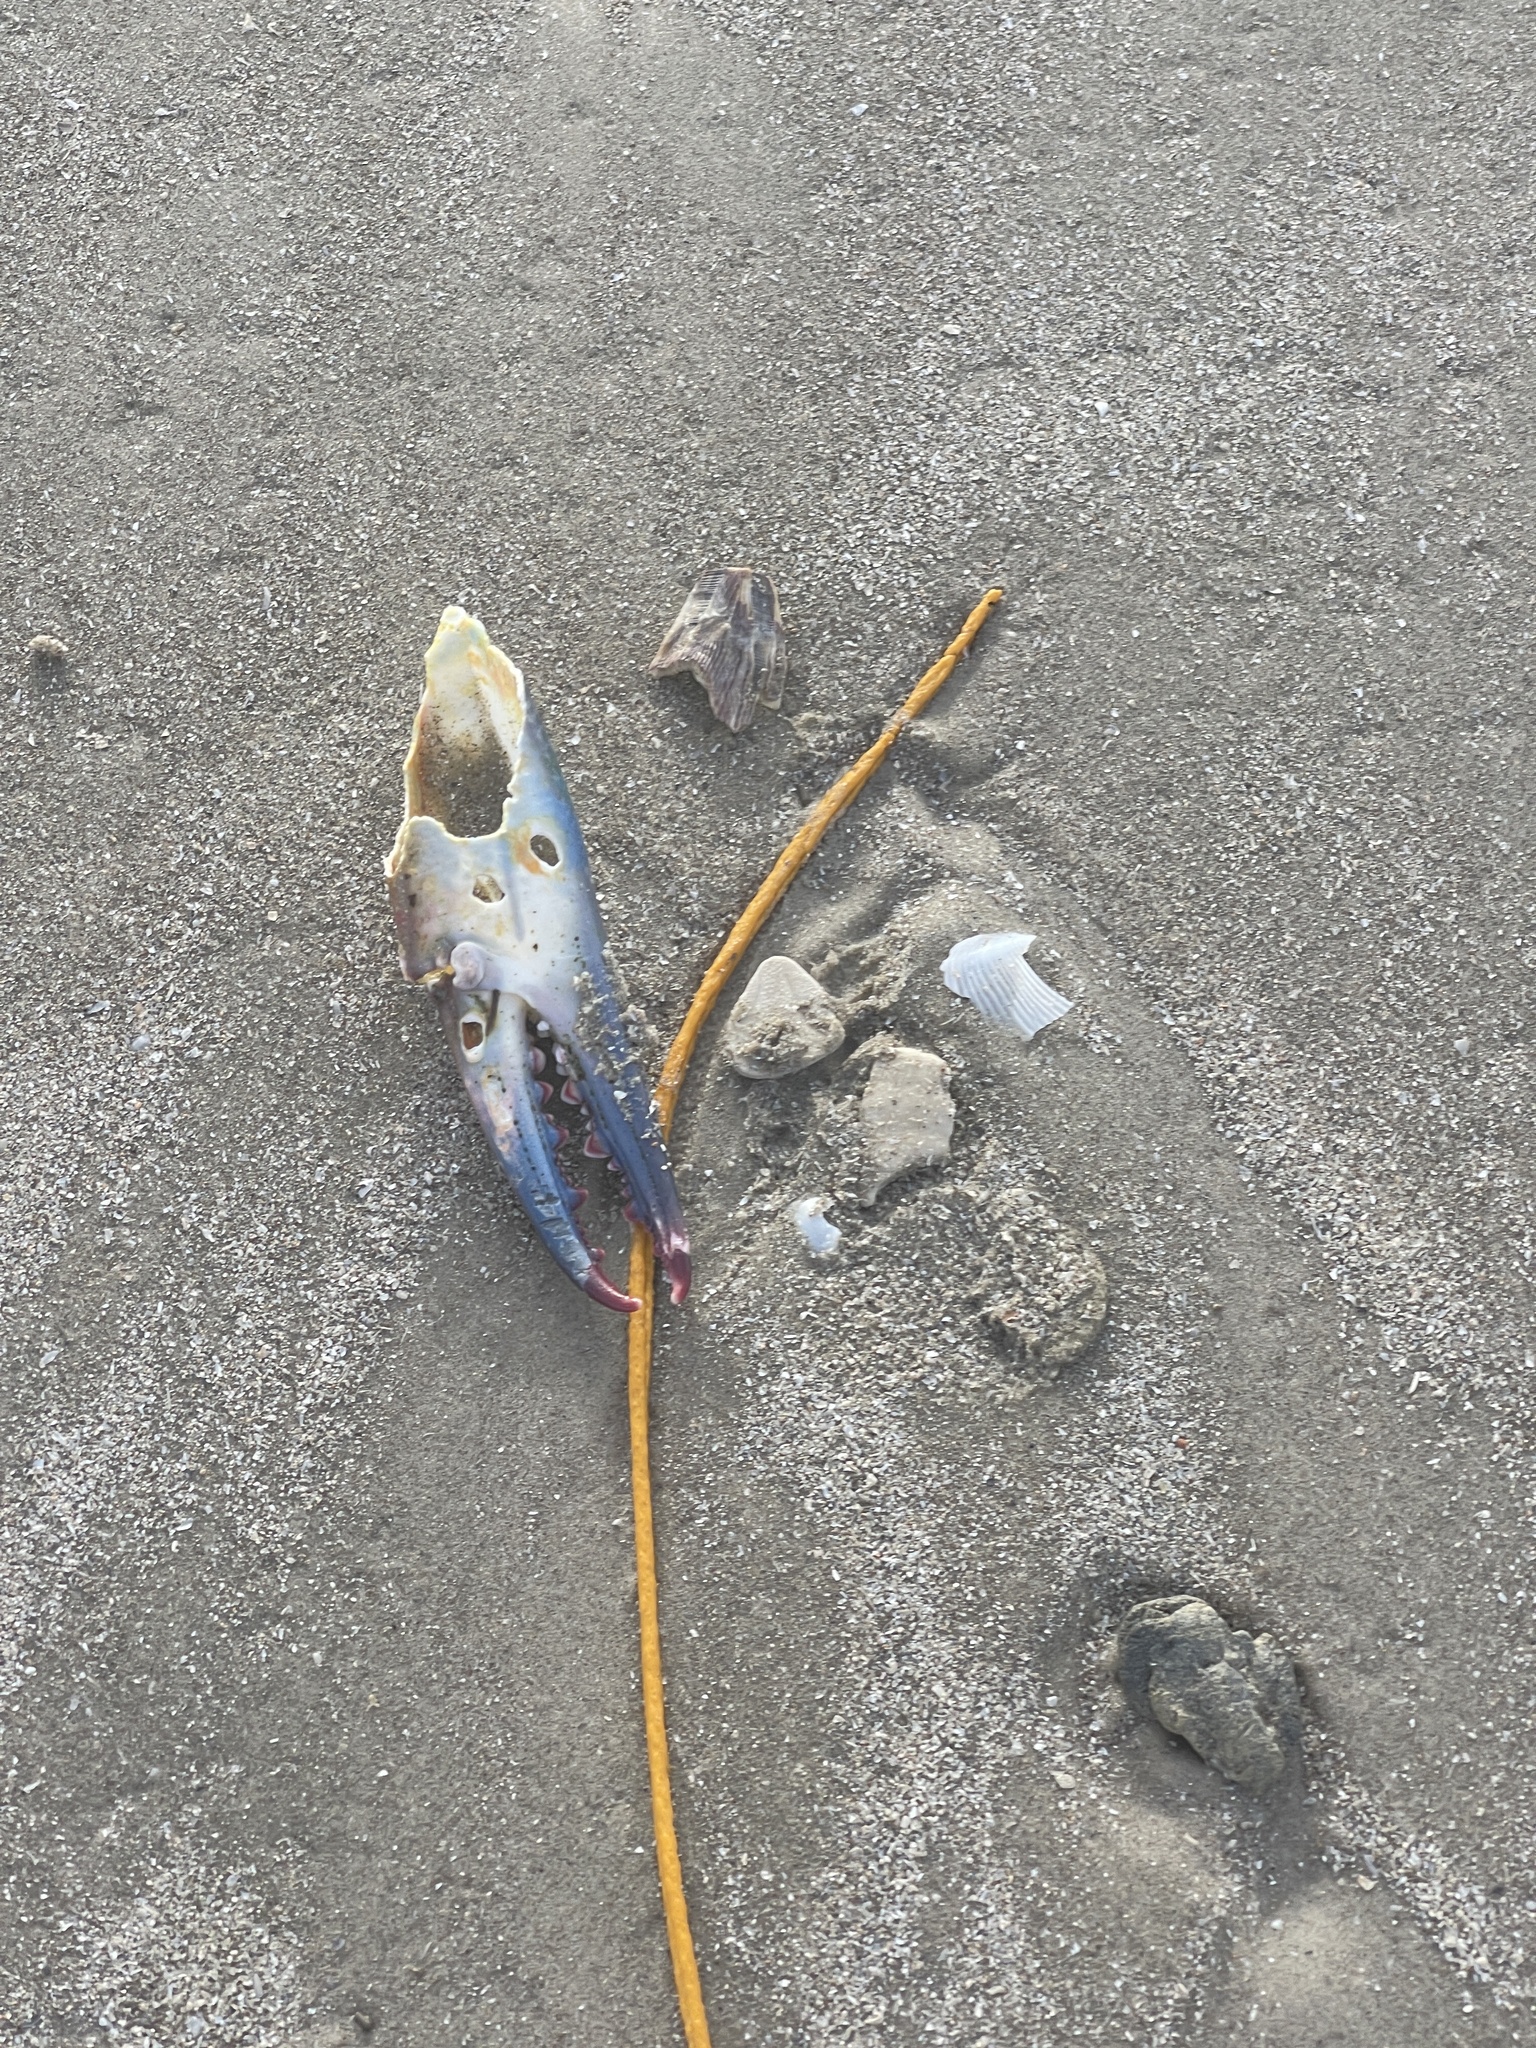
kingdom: Animalia
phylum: Arthropoda
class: Malacostraca
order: Decapoda
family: Portunidae
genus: Callinectes
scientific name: Callinectes sapidus
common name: Blue crab
